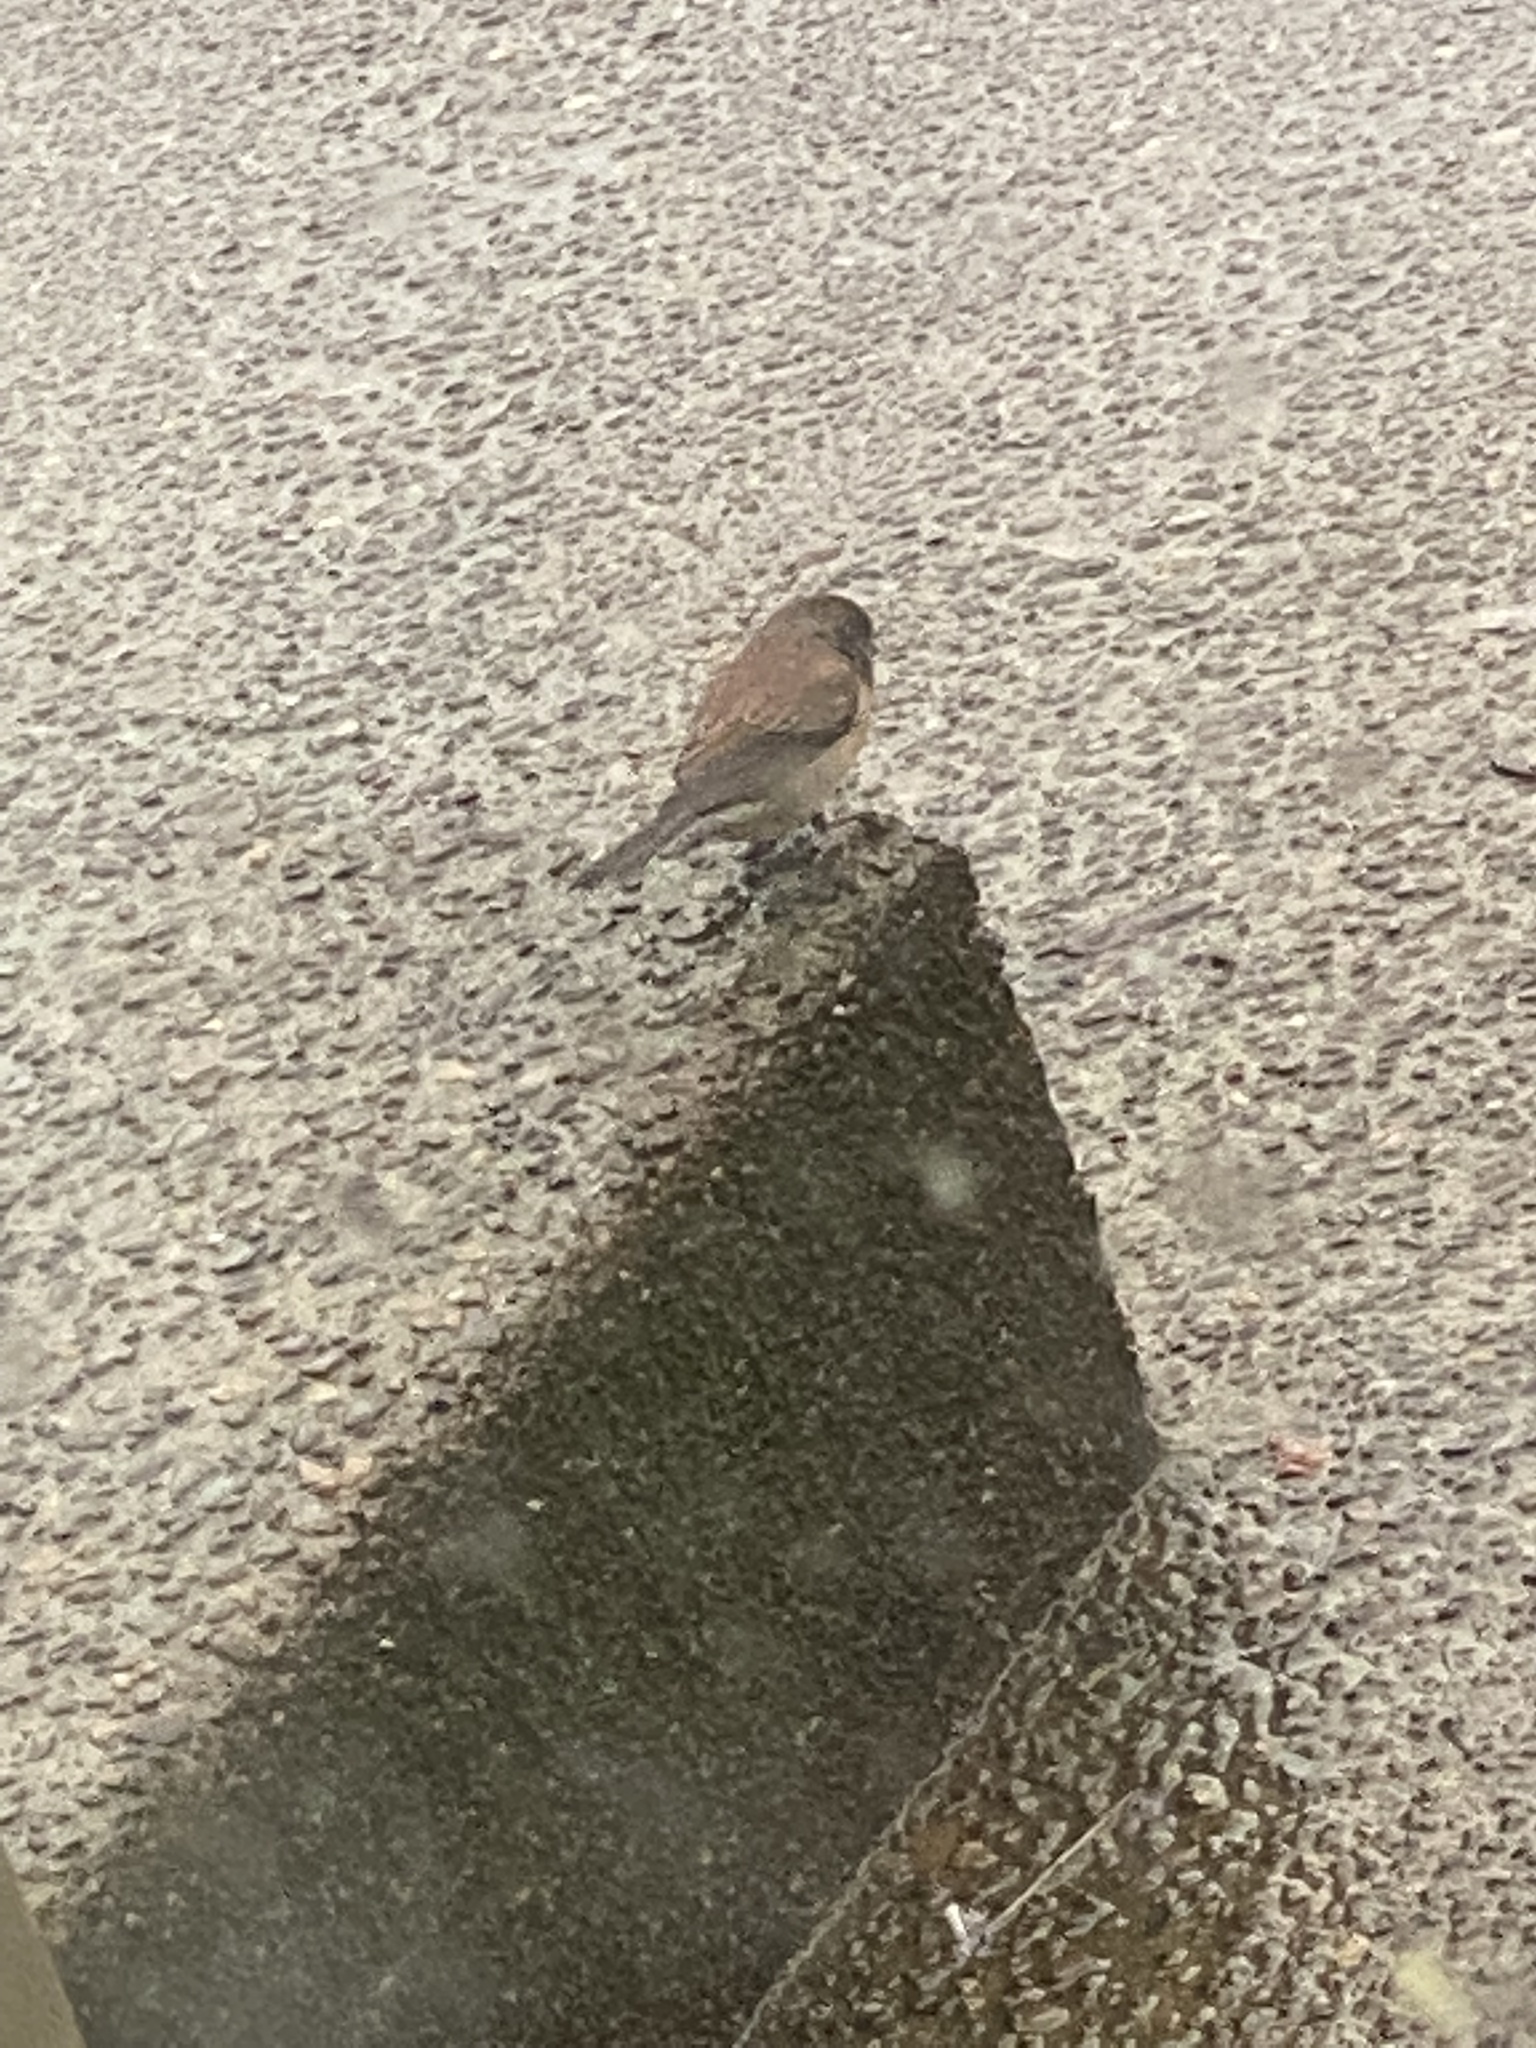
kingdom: Animalia
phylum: Chordata
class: Aves
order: Passeriformes
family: Passerellidae
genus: Junco
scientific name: Junco hyemalis
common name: Dark-eyed junco
